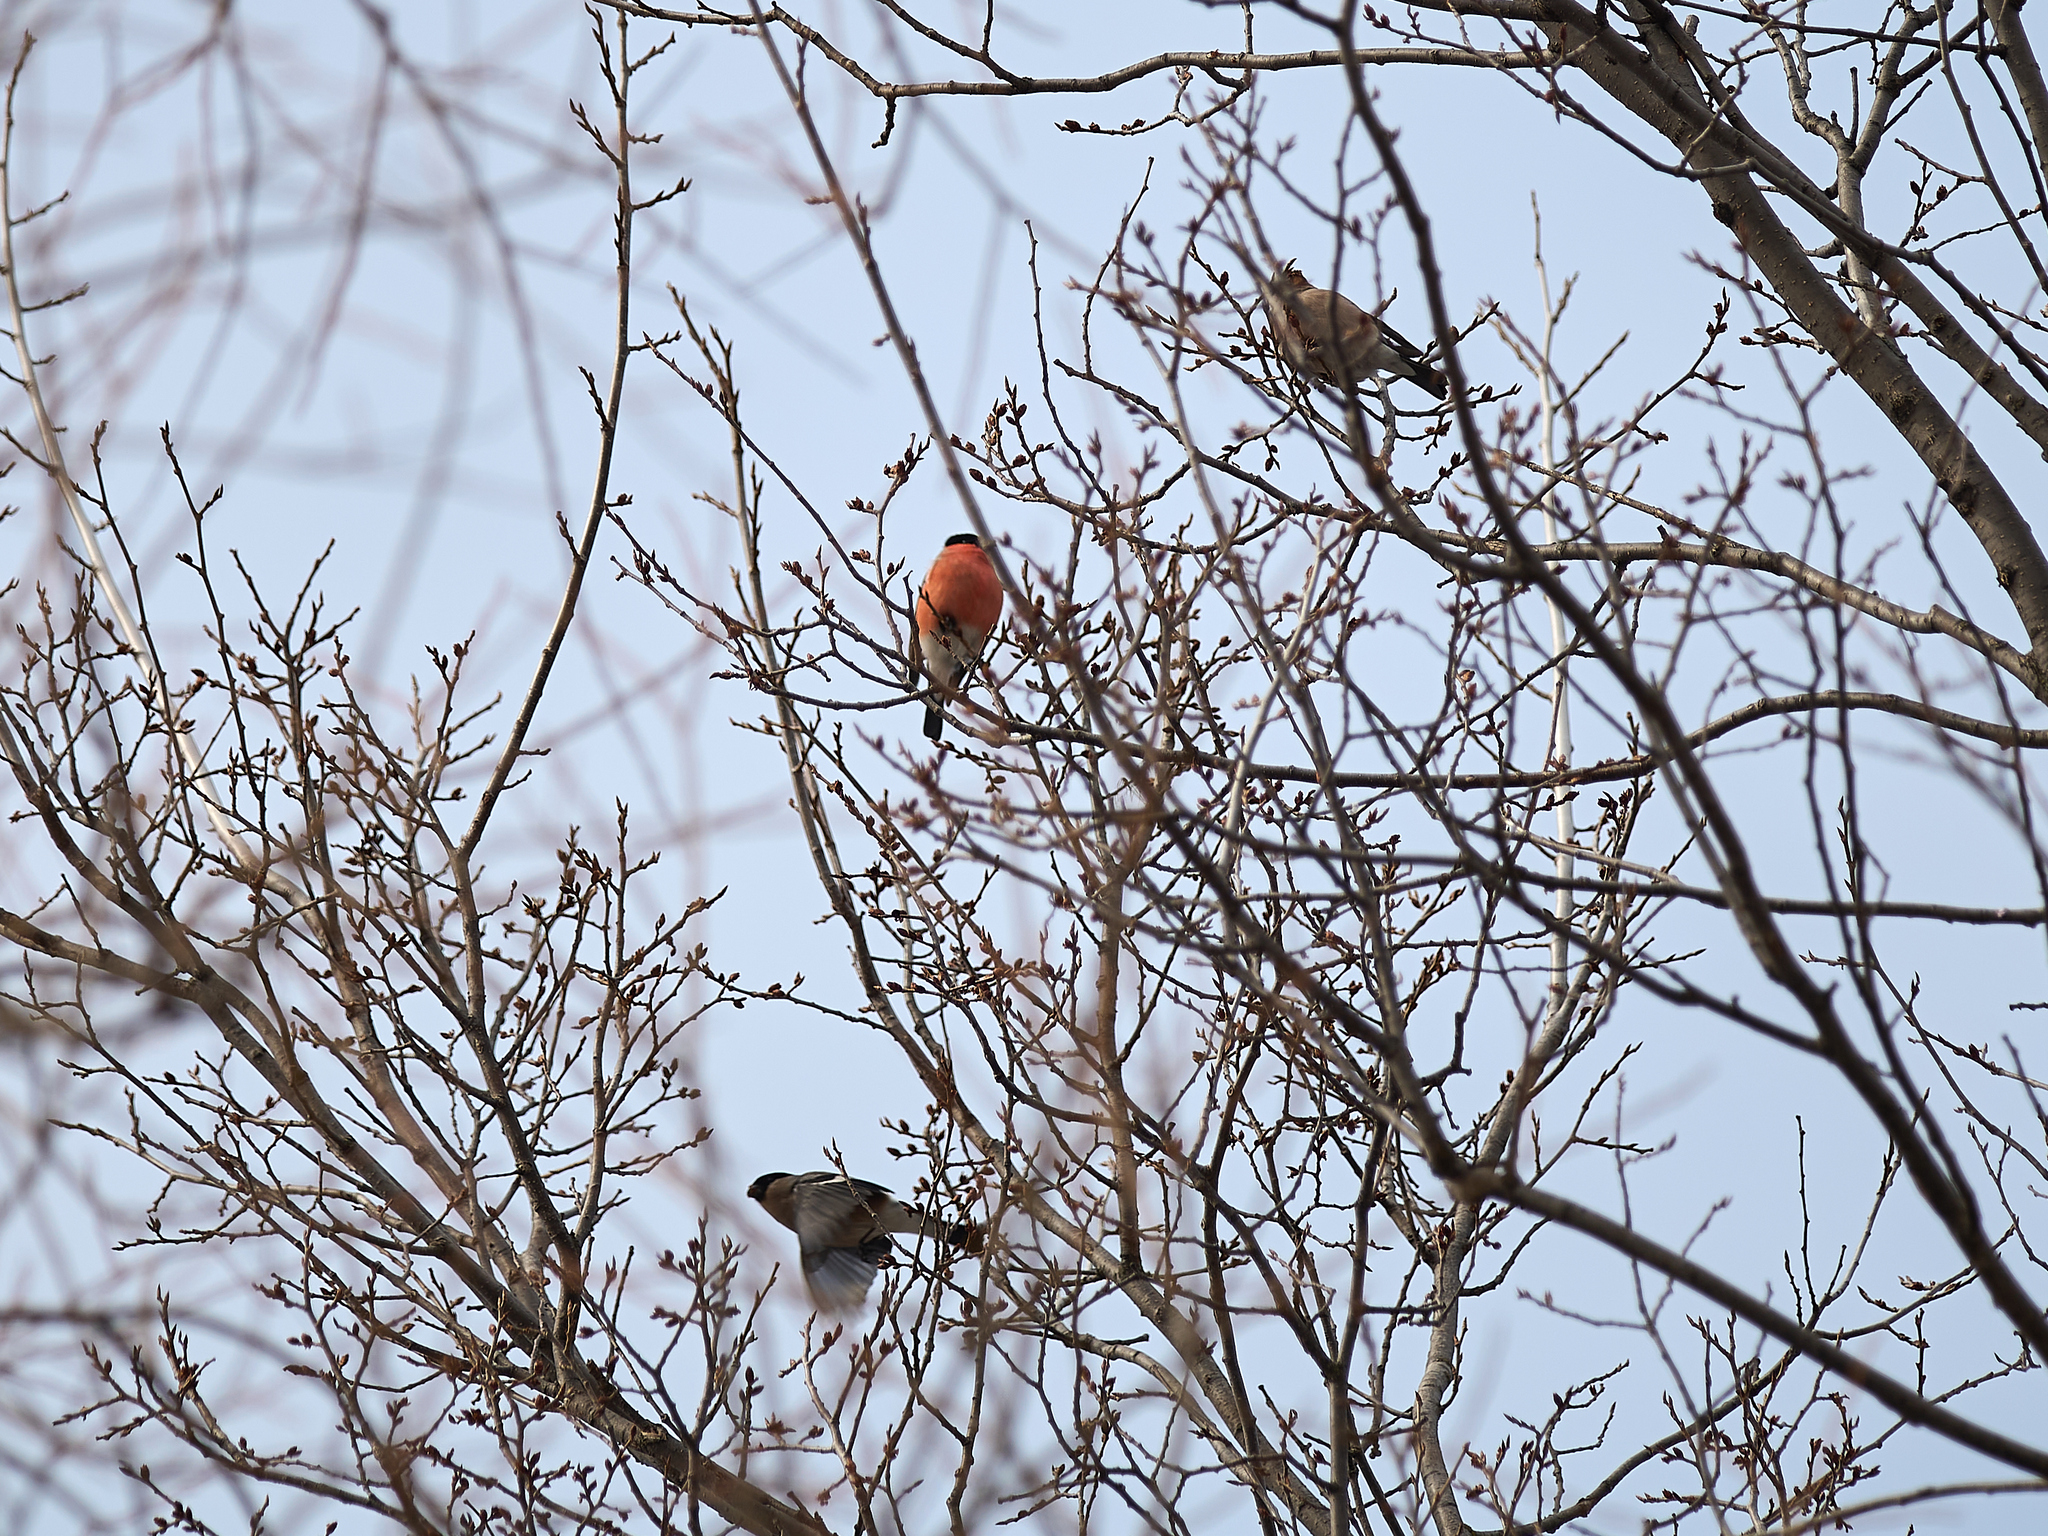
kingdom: Animalia
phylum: Chordata
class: Aves
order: Passeriformes
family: Fringillidae
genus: Pyrrhula
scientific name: Pyrrhula pyrrhula
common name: Eurasian bullfinch
